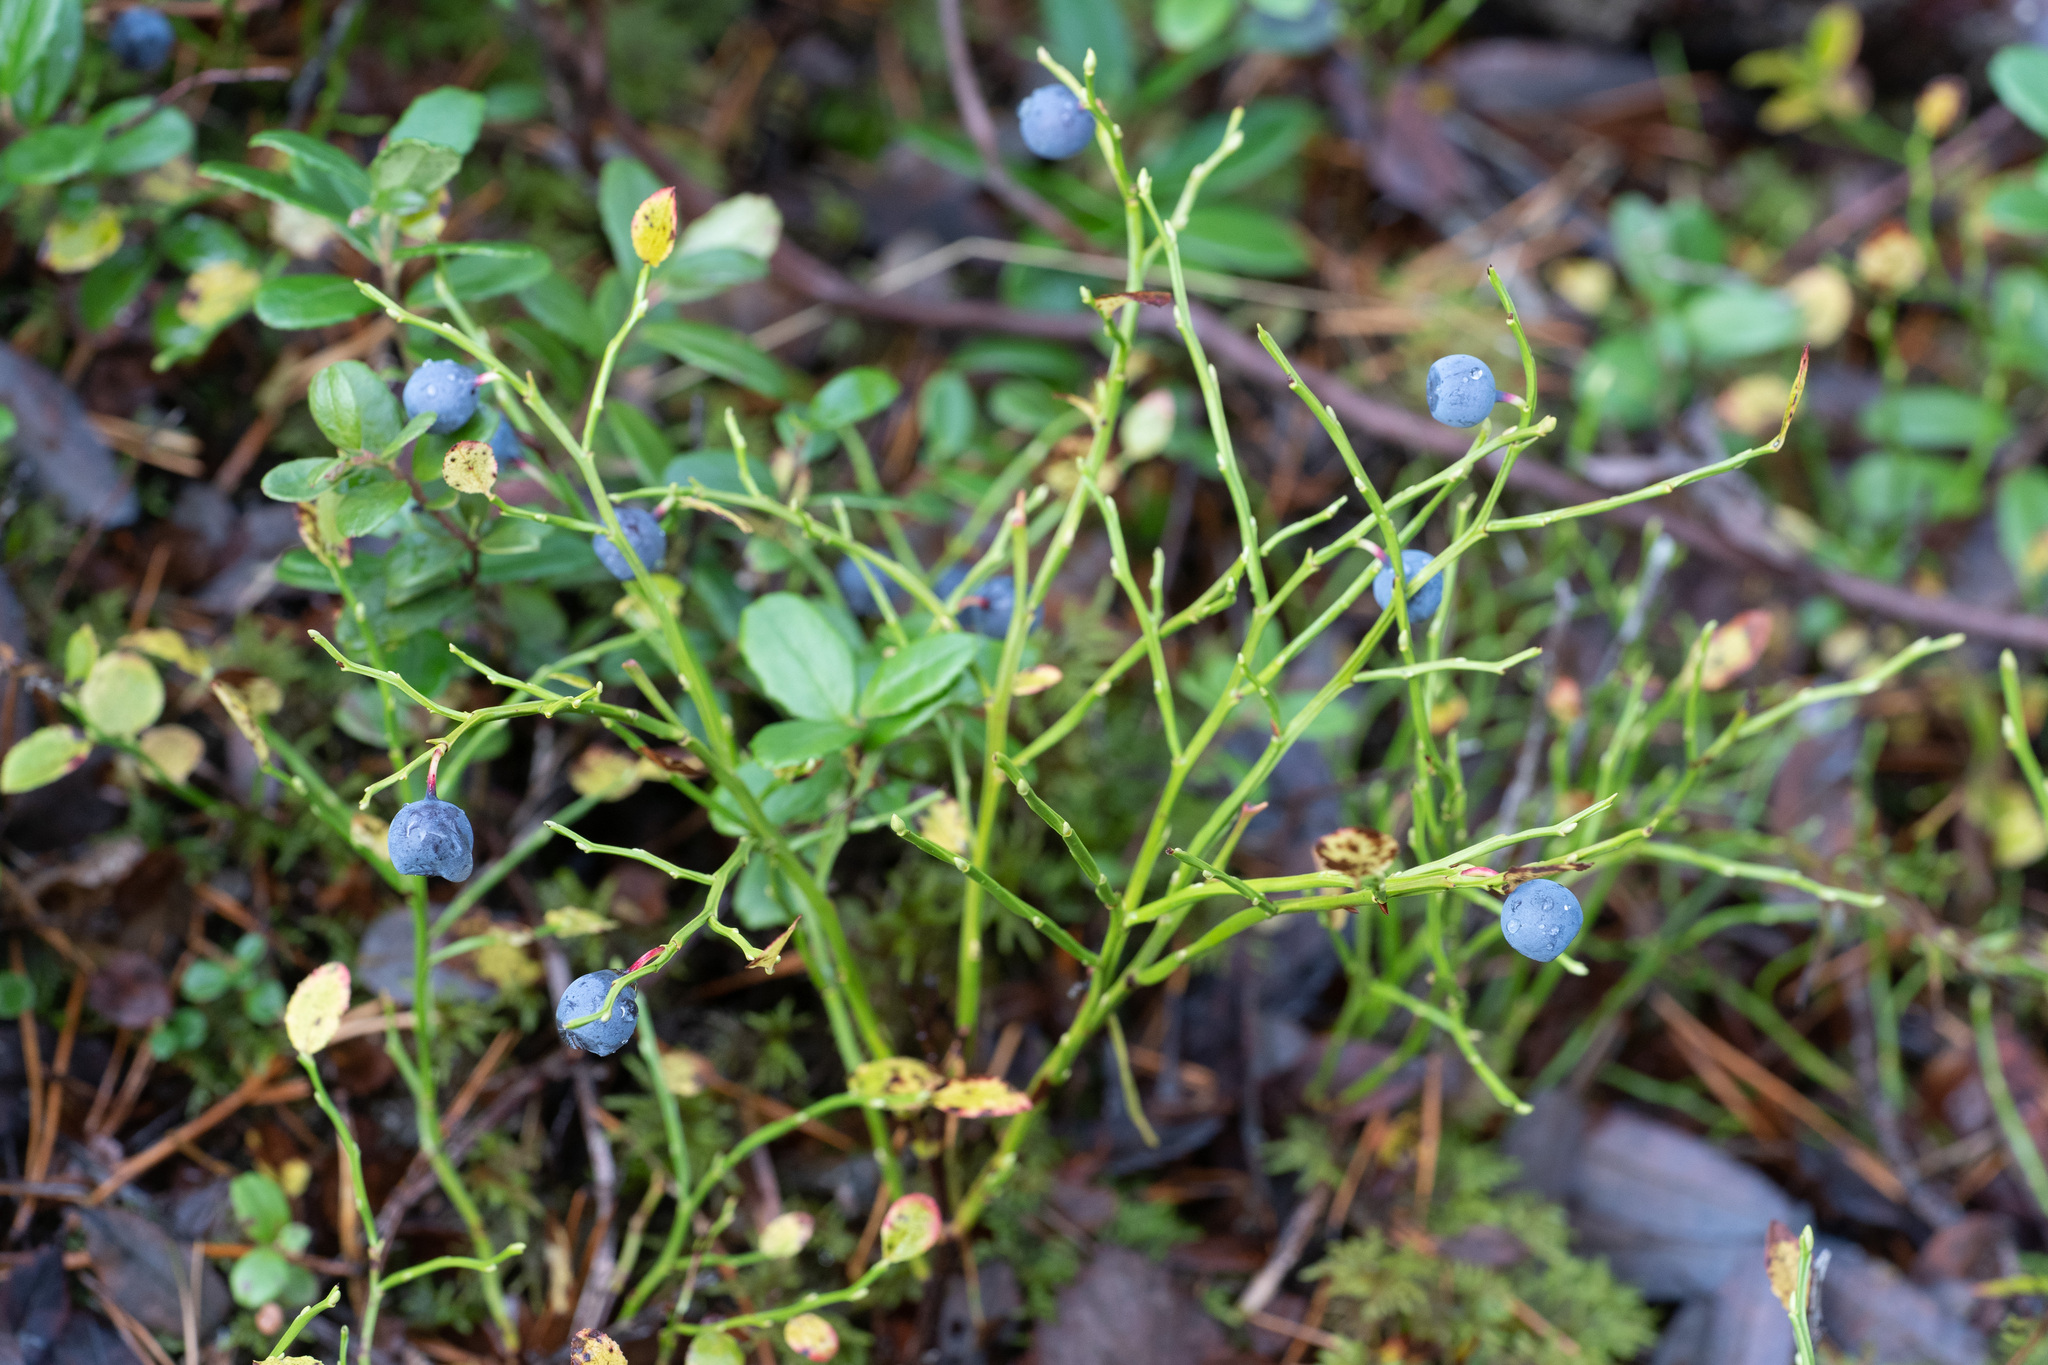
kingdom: Plantae
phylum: Tracheophyta
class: Magnoliopsida
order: Ericales
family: Ericaceae
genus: Vaccinium
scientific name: Vaccinium myrtillus
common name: Bilberry
